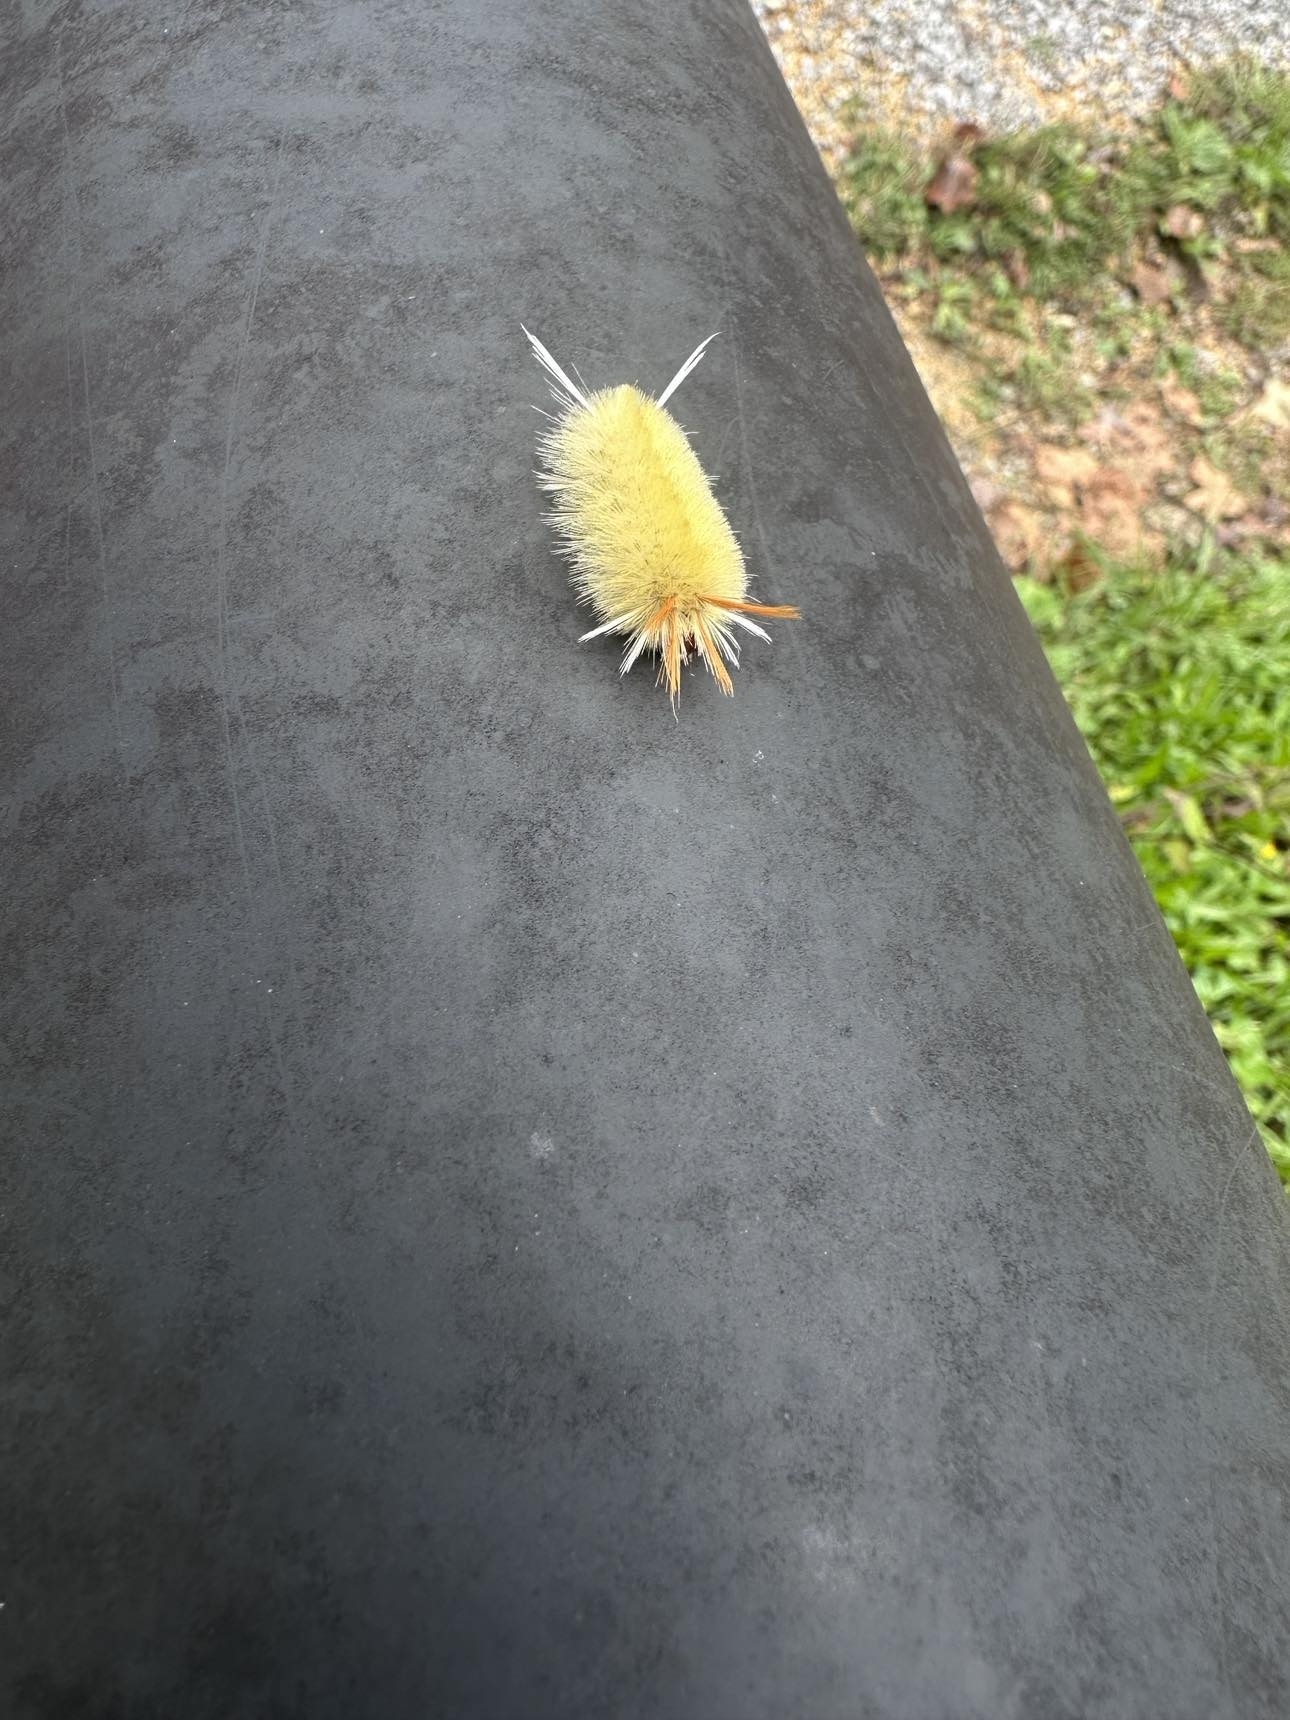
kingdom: Animalia
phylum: Arthropoda
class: Insecta
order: Lepidoptera
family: Erebidae
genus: Halysidota
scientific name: Halysidota harrisii
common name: Sycamore tussock moth
